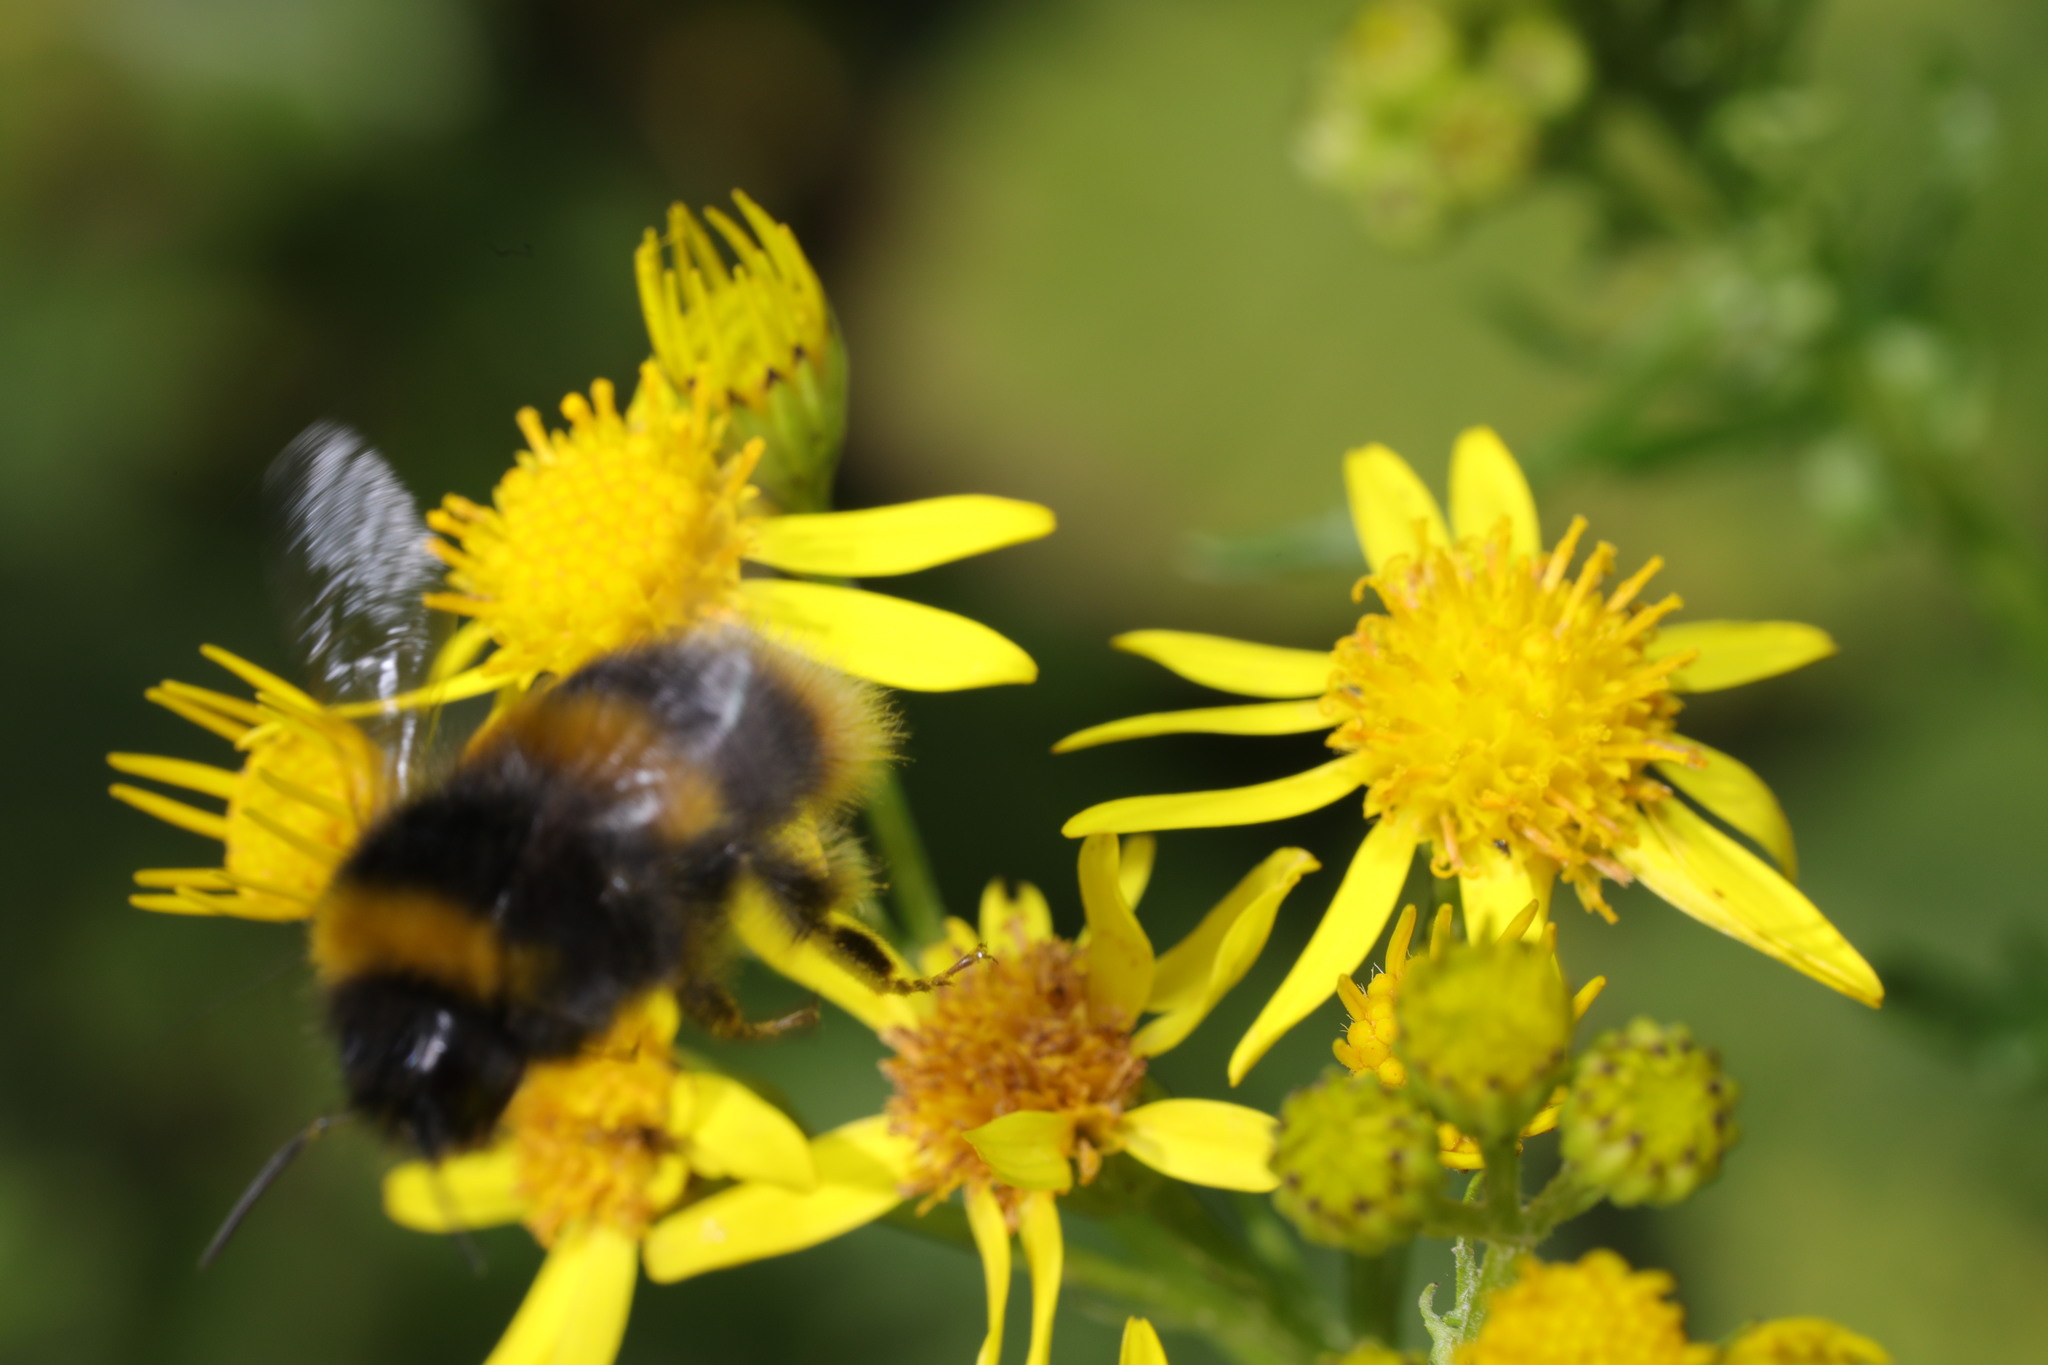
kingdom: Animalia
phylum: Arthropoda
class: Insecta
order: Hymenoptera
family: Apidae
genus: Bombus
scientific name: Bombus terrestris
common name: Buff-tailed bumblebee
